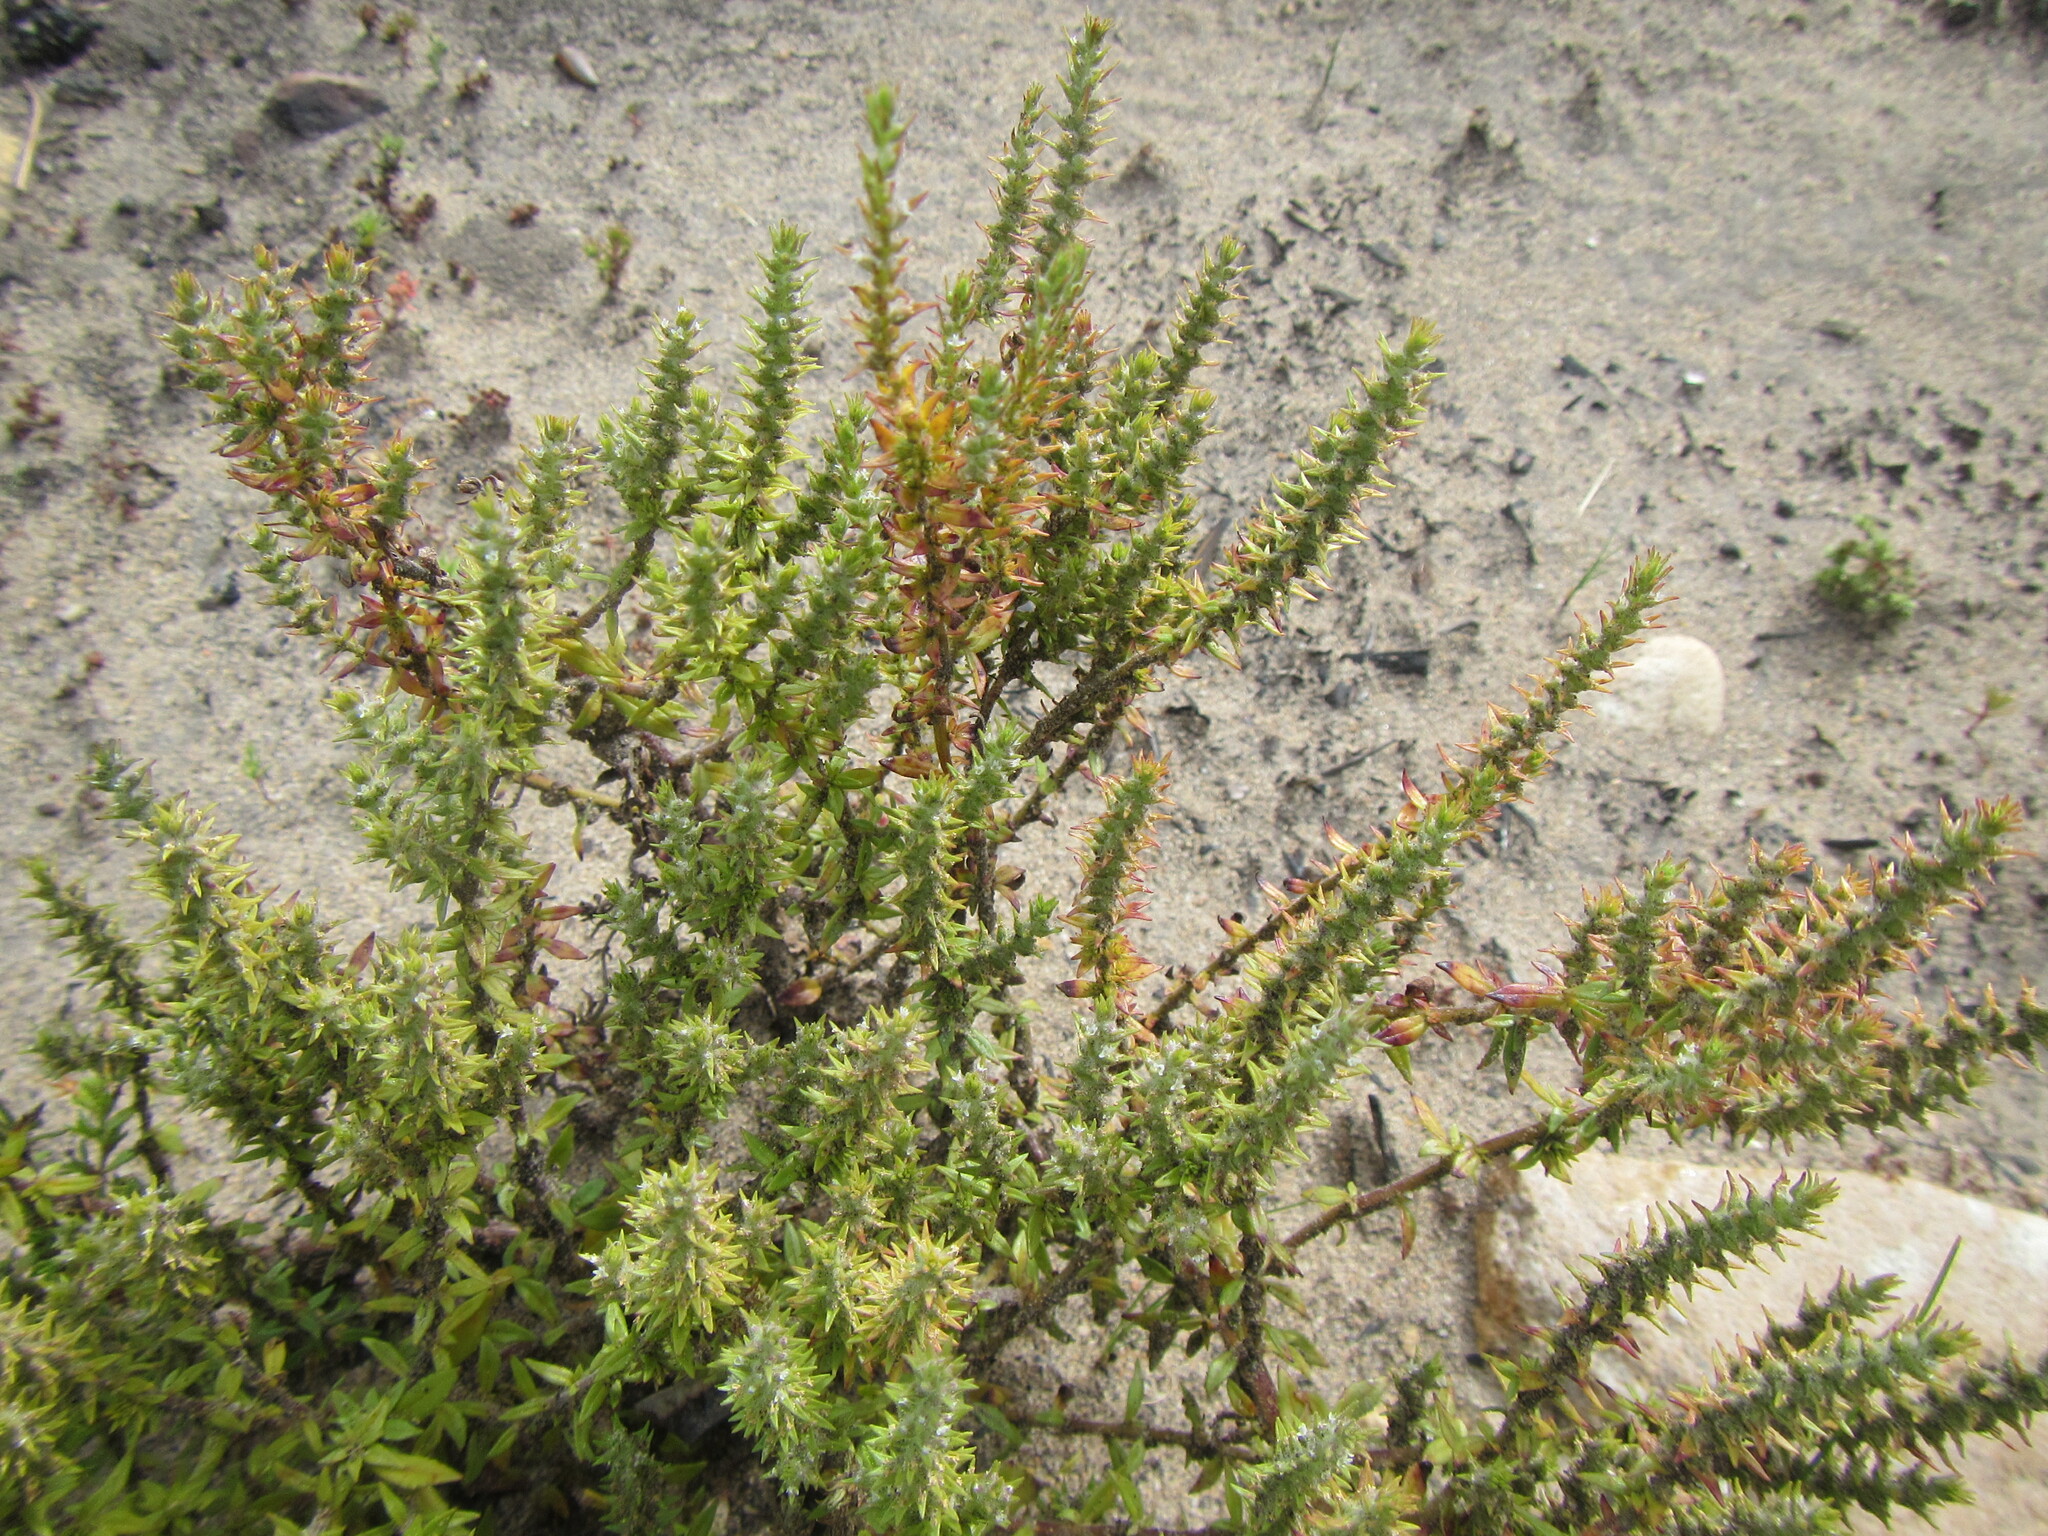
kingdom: Plantae
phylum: Tracheophyta
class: Magnoliopsida
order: Lamiales
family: Scrophulariaceae
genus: Chenopodiopsis
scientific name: Chenopodiopsis hirta
